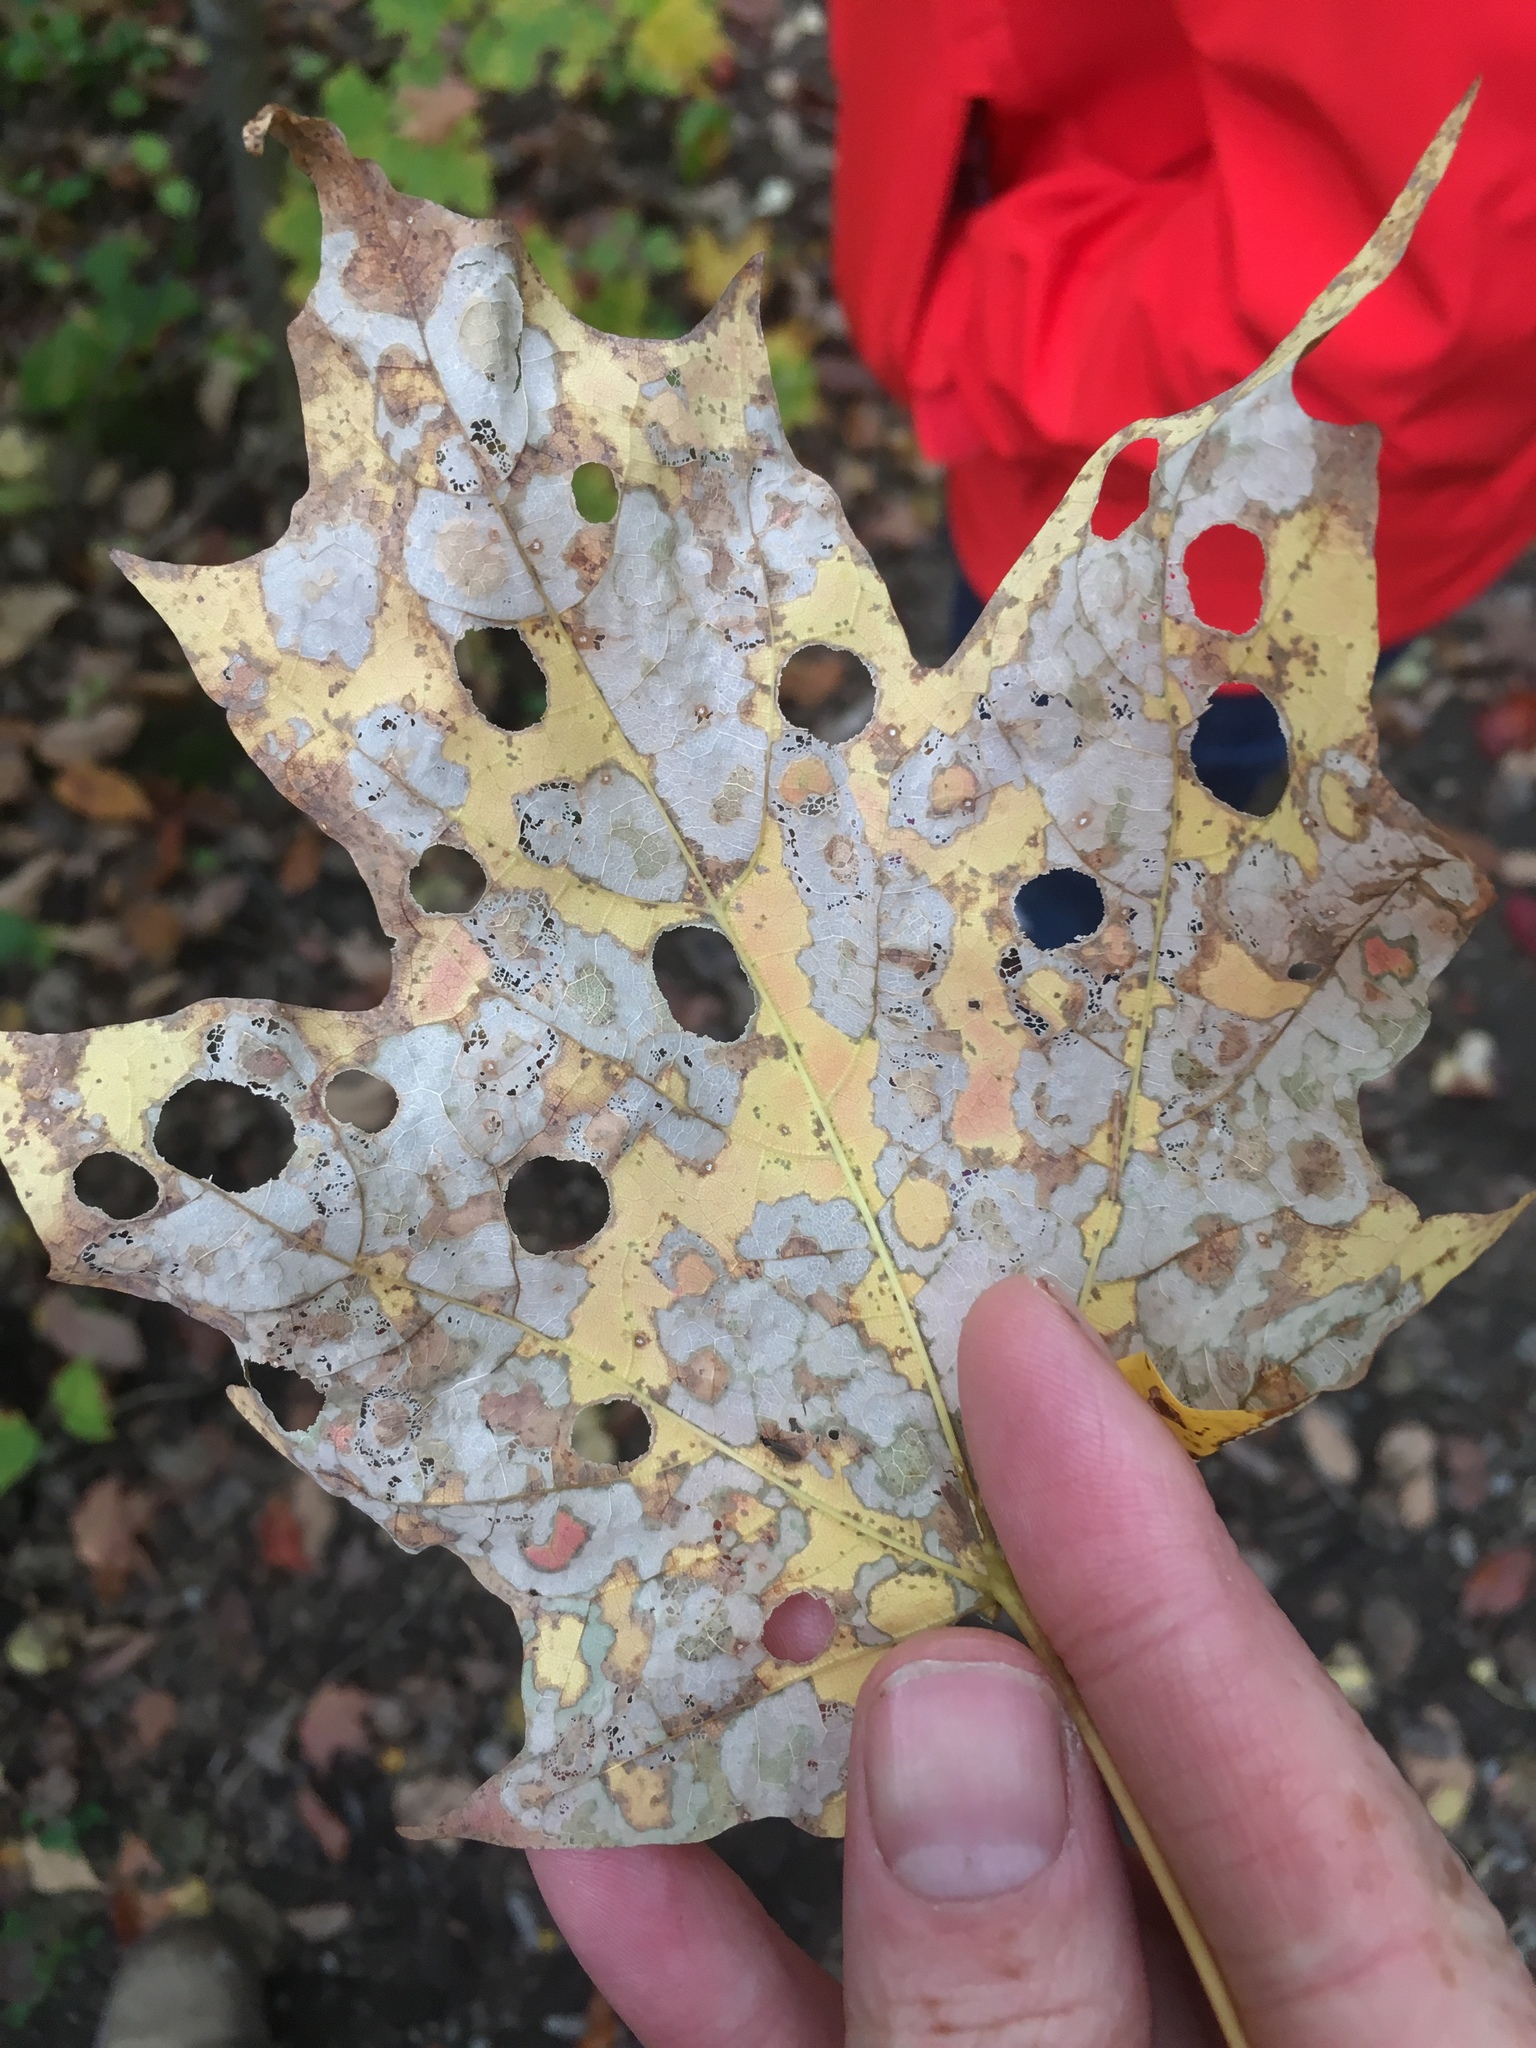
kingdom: Animalia
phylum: Arthropoda
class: Insecta
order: Lepidoptera
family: Incurvariidae
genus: Paraclemensia
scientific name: Paraclemensia acerifoliella
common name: Maple leafcutter
